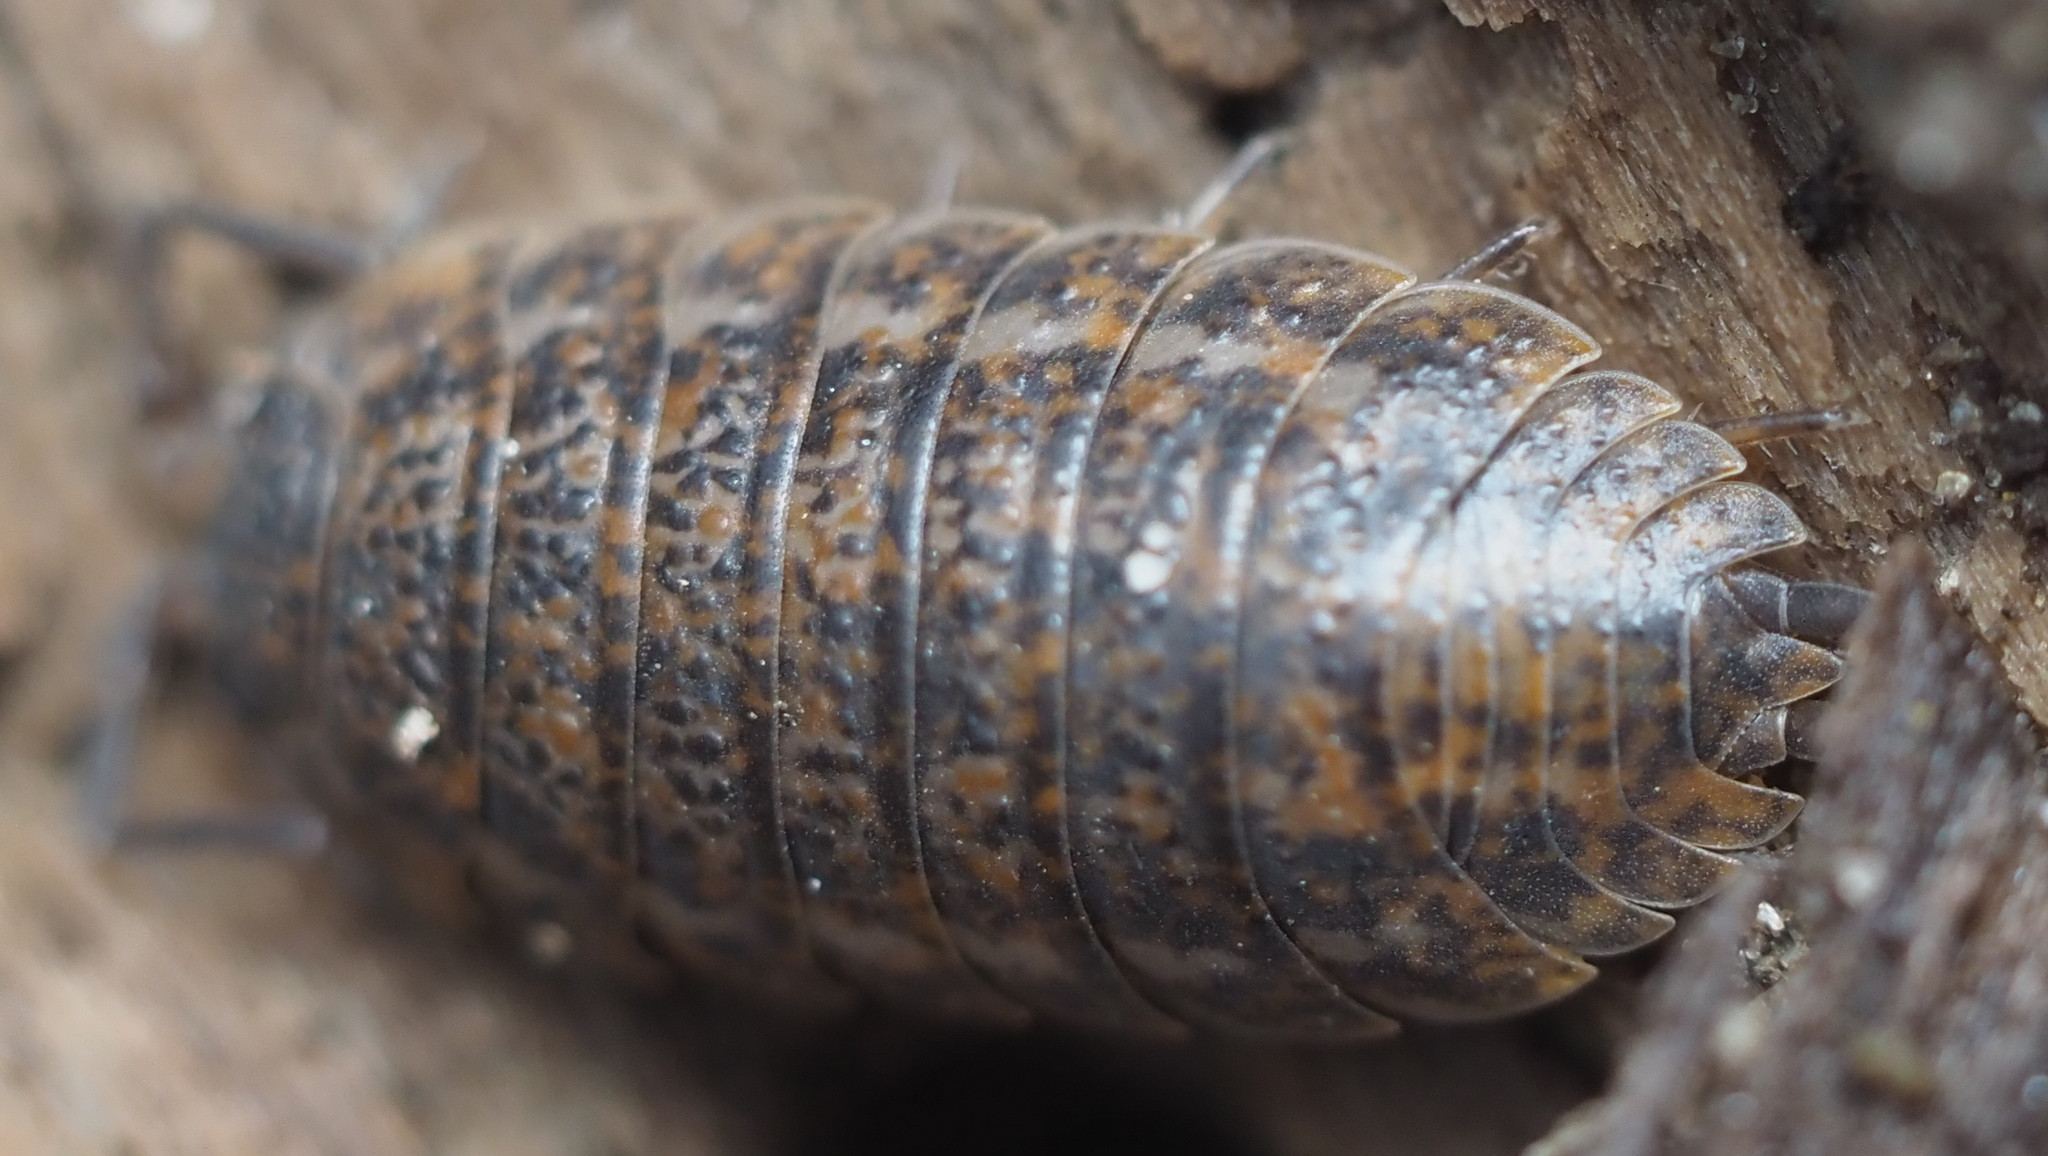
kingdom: Animalia
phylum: Arthropoda
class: Malacostraca
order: Isopoda
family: Trachelipodidae
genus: Trachelipus
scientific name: Trachelipus rathkii
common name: Isopod
